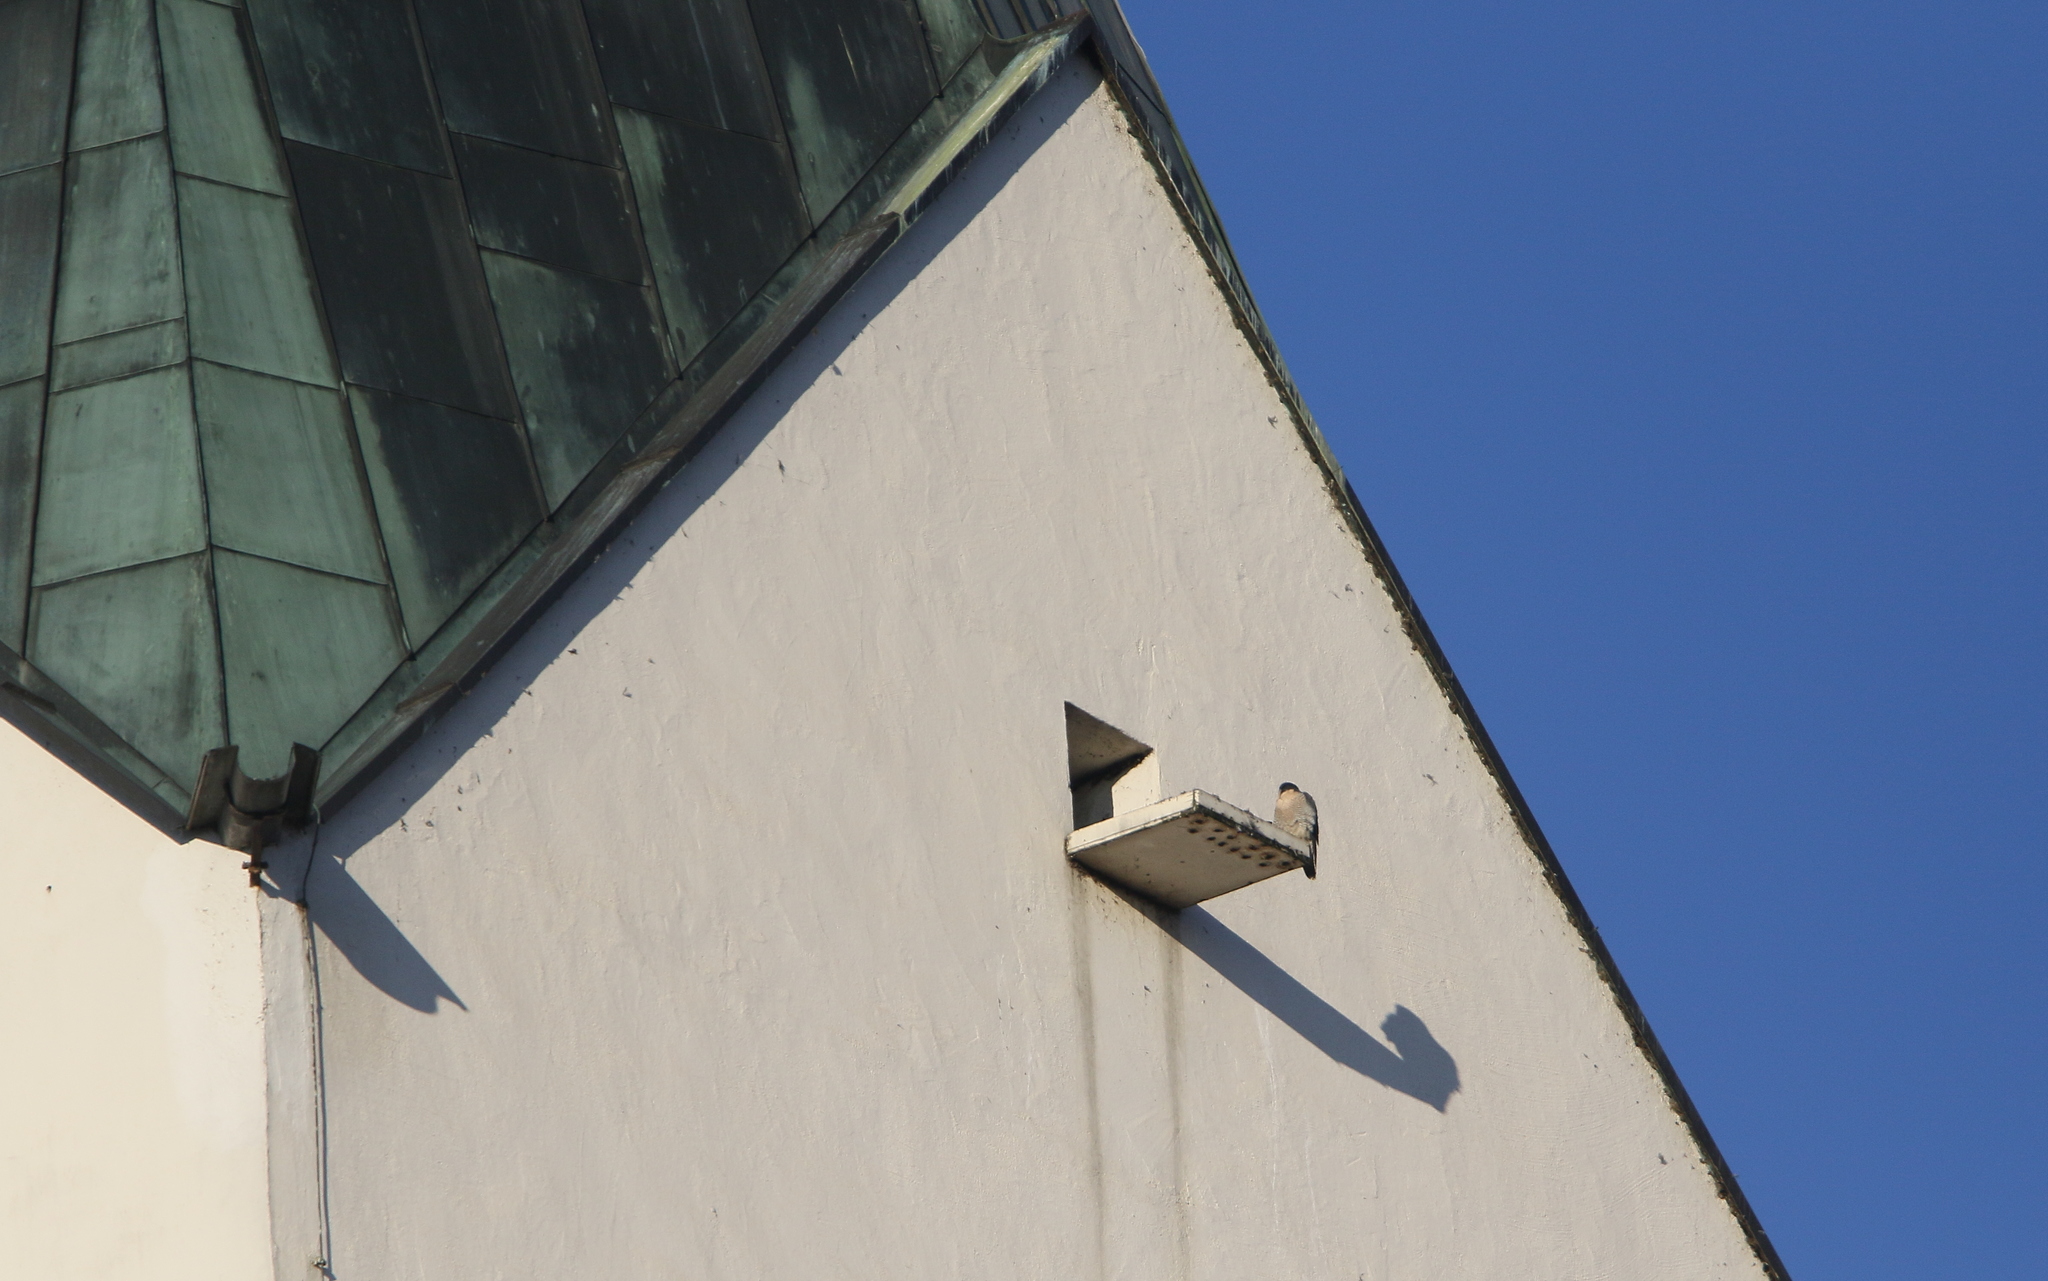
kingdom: Animalia
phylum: Chordata
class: Aves
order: Falconiformes
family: Falconidae
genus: Falco
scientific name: Falco peregrinus
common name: Peregrine falcon
